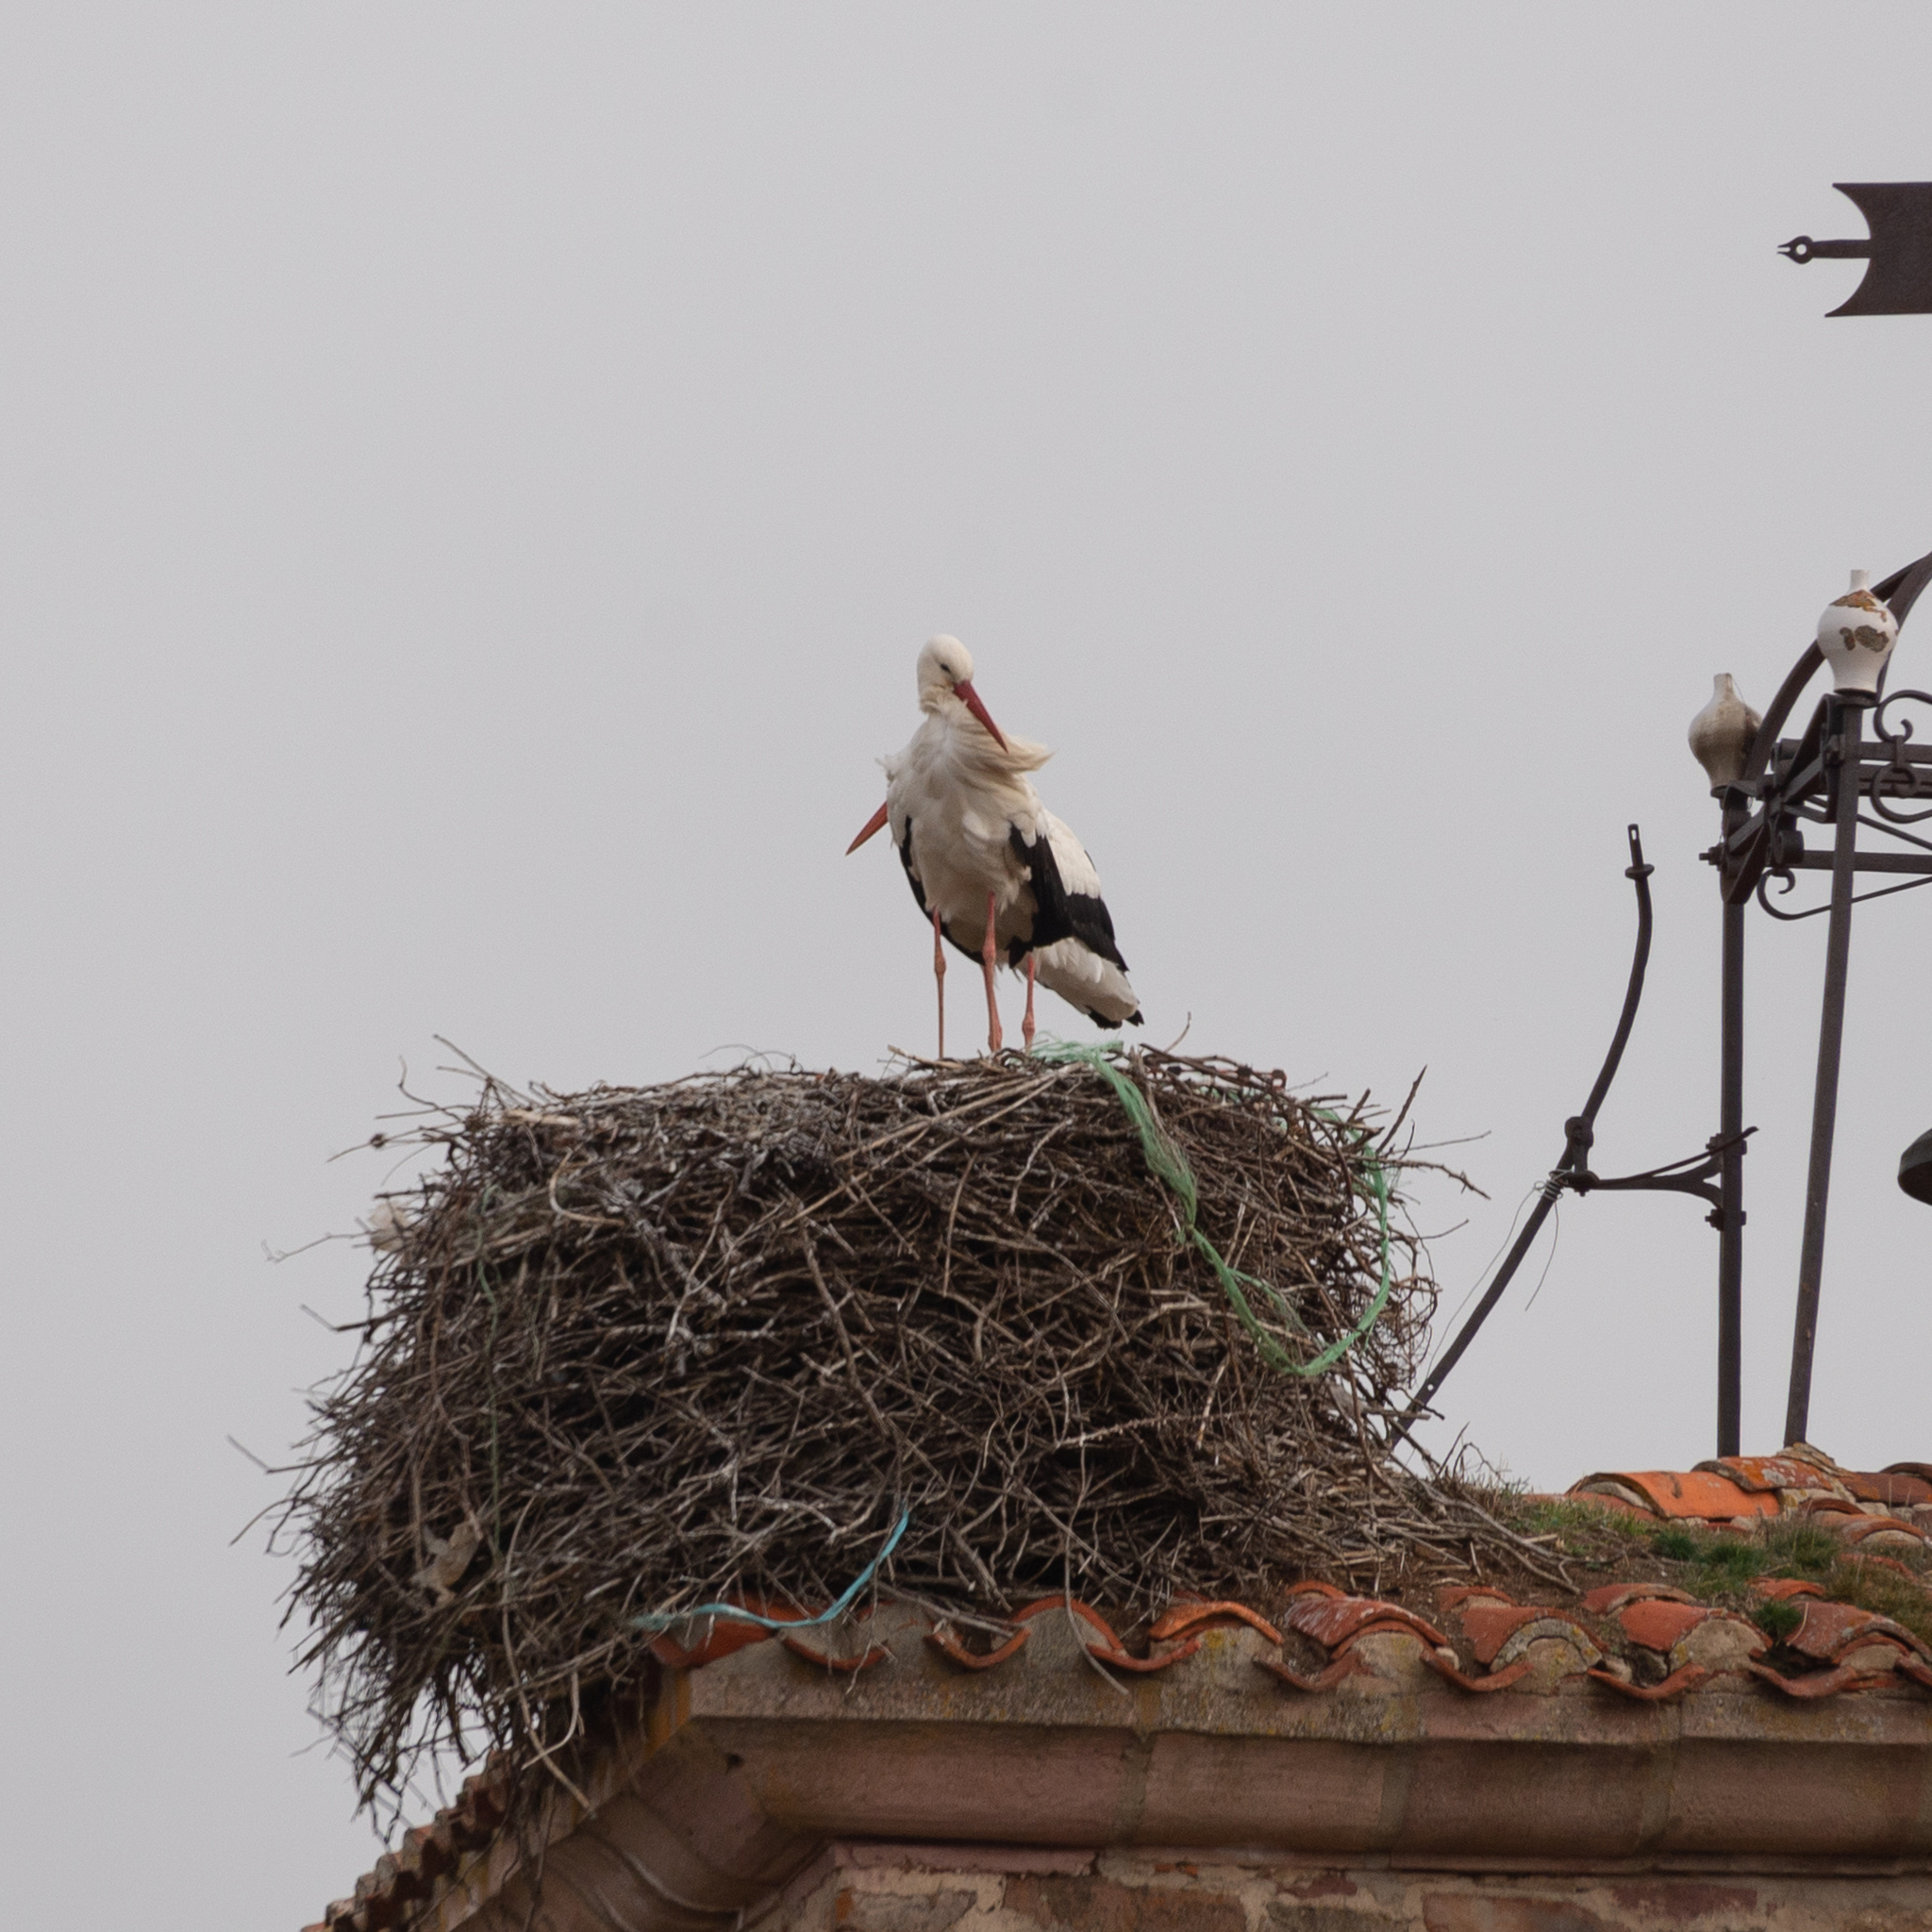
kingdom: Animalia
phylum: Chordata
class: Aves
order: Ciconiiformes
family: Ciconiidae
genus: Ciconia
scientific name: Ciconia ciconia
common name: White stork
